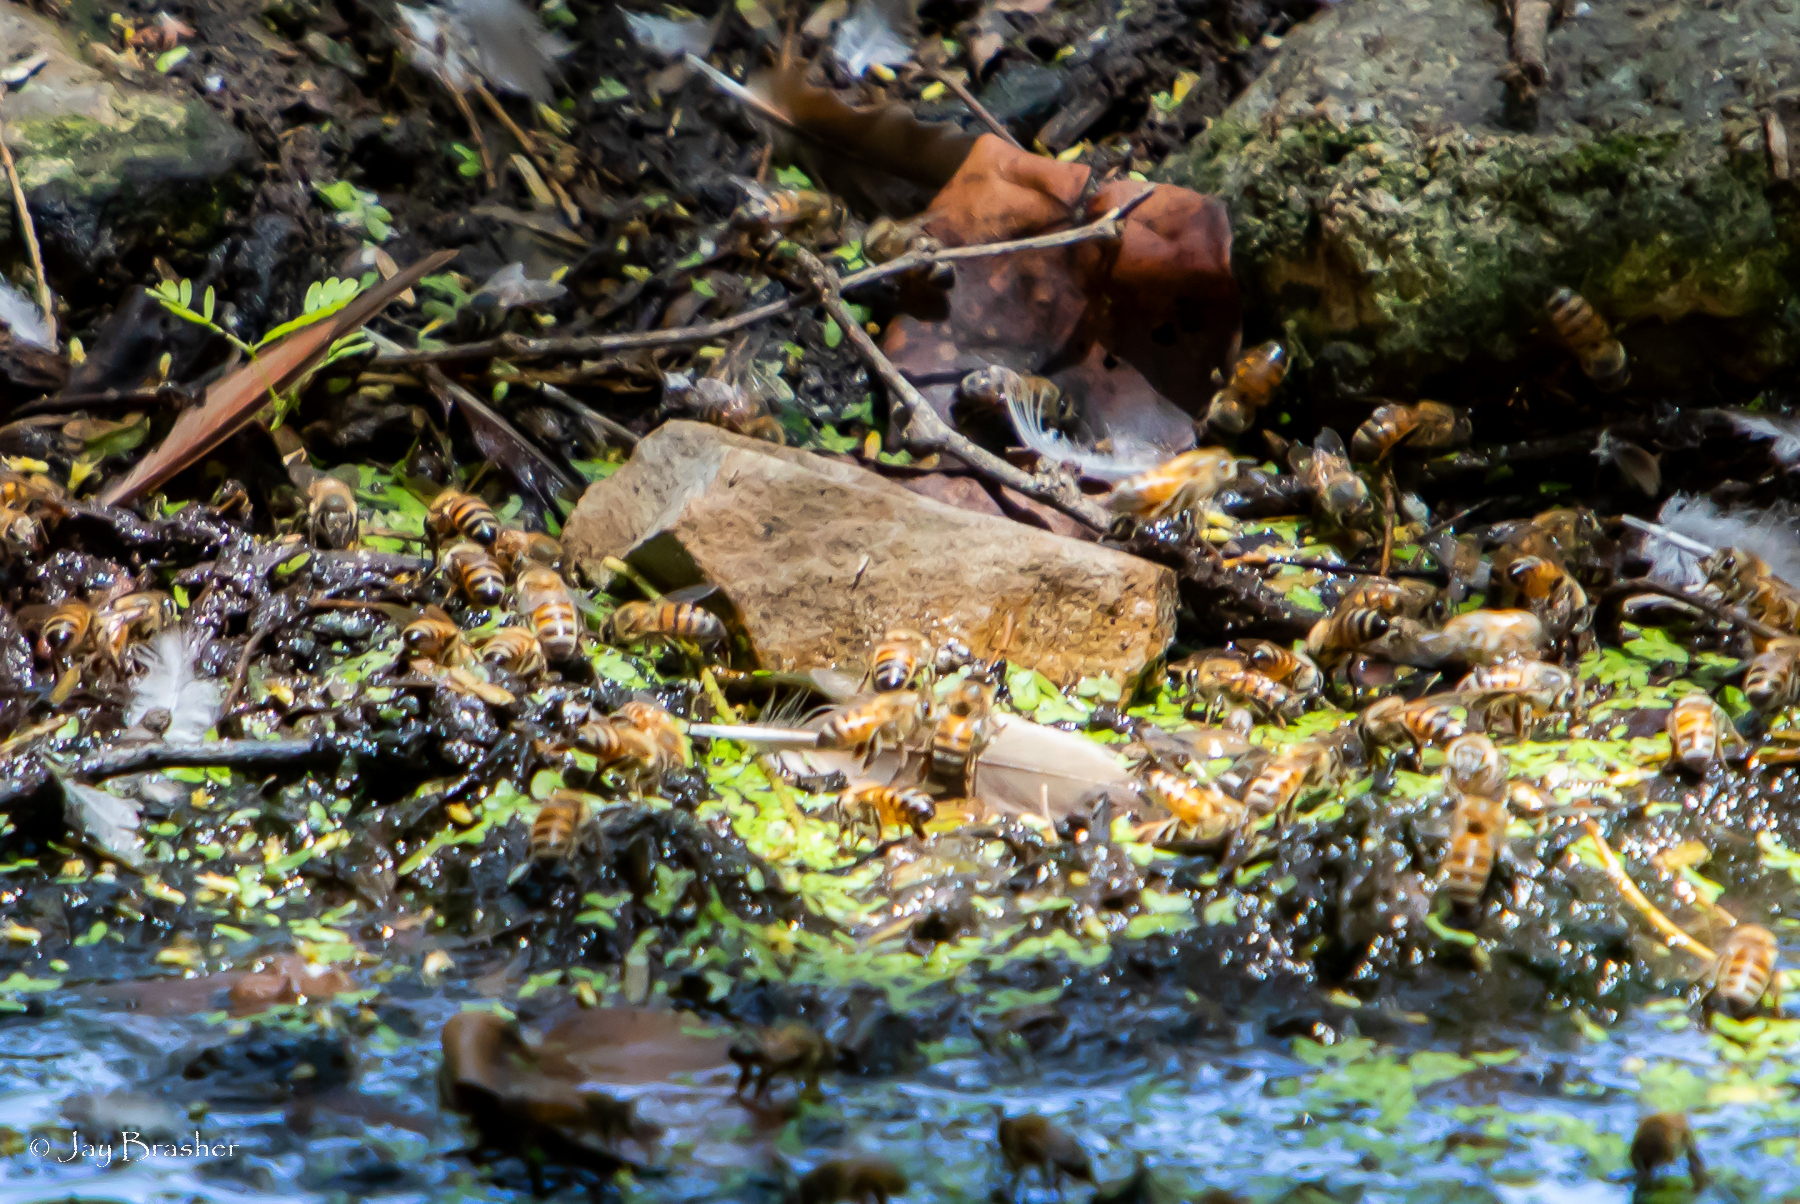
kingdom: Animalia
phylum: Arthropoda
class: Insecta
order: Hymenoptera
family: Apidae
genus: Apis
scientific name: Apis mellifera
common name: Honey bee
